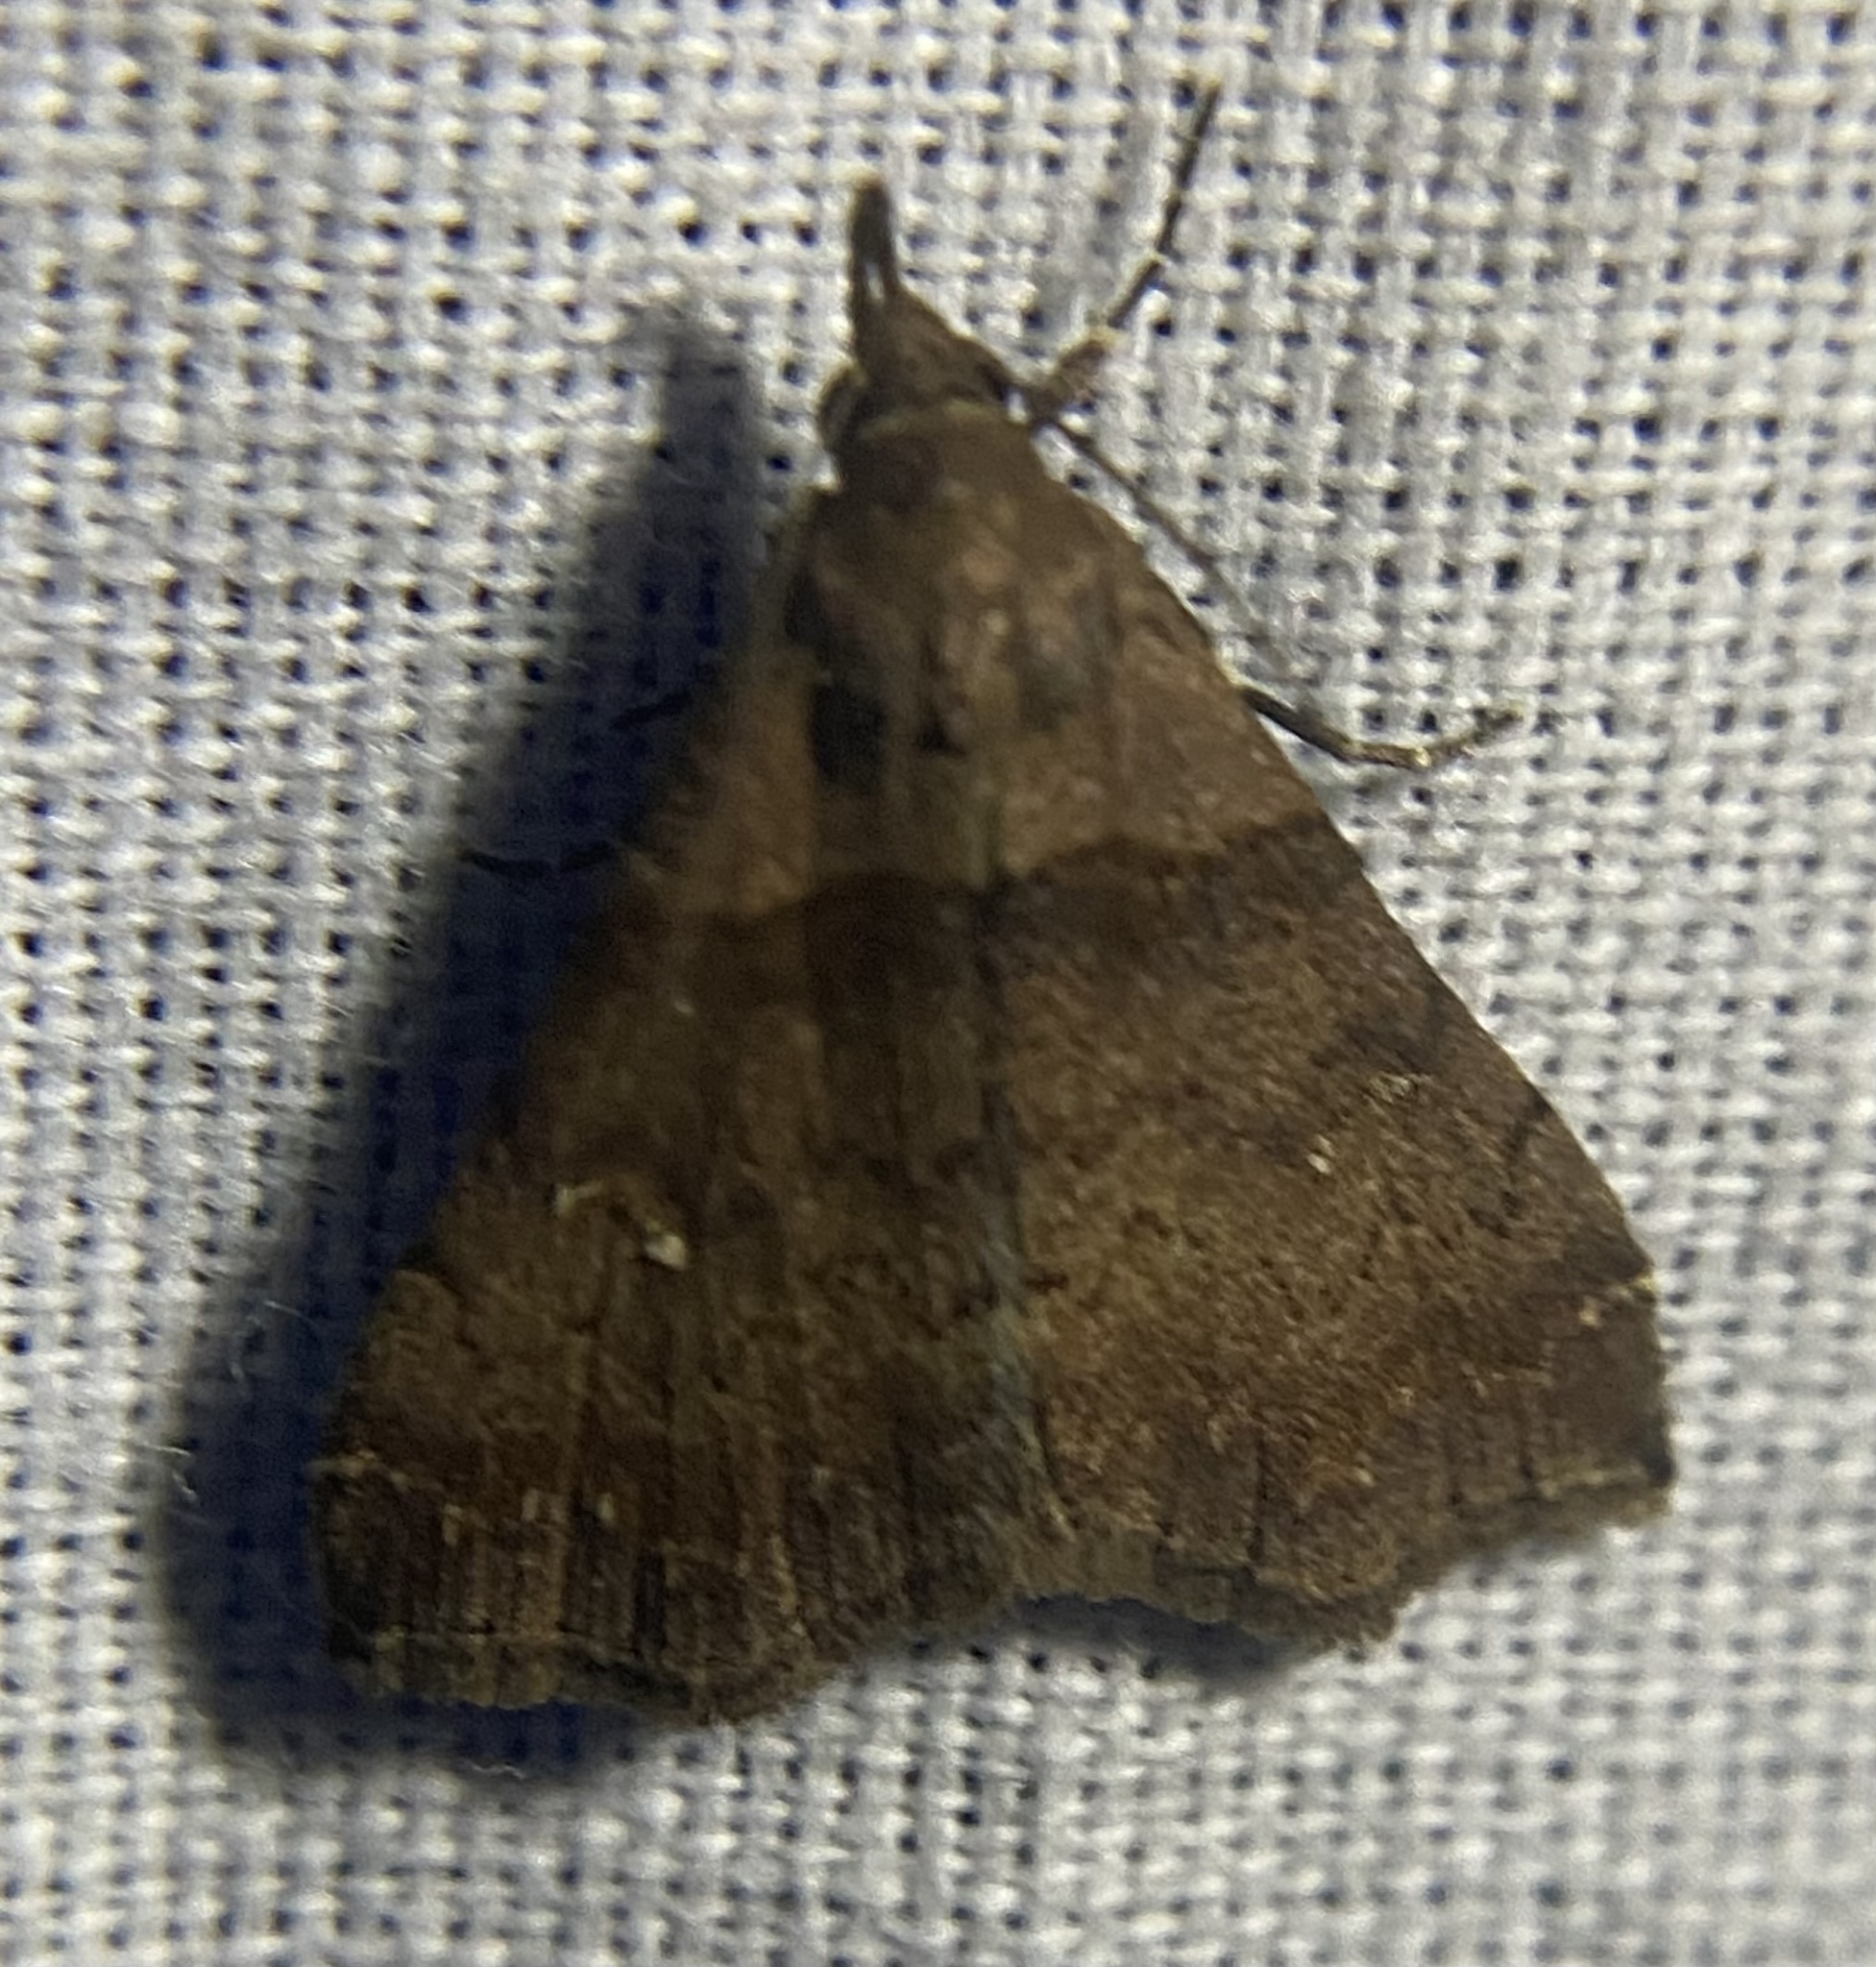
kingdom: Animalia
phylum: Arthropoda
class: Insecta
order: Lepidoptera
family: Erebidae
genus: Lascoria
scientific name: Lascoria ambigualis
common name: Ambiguous moth
